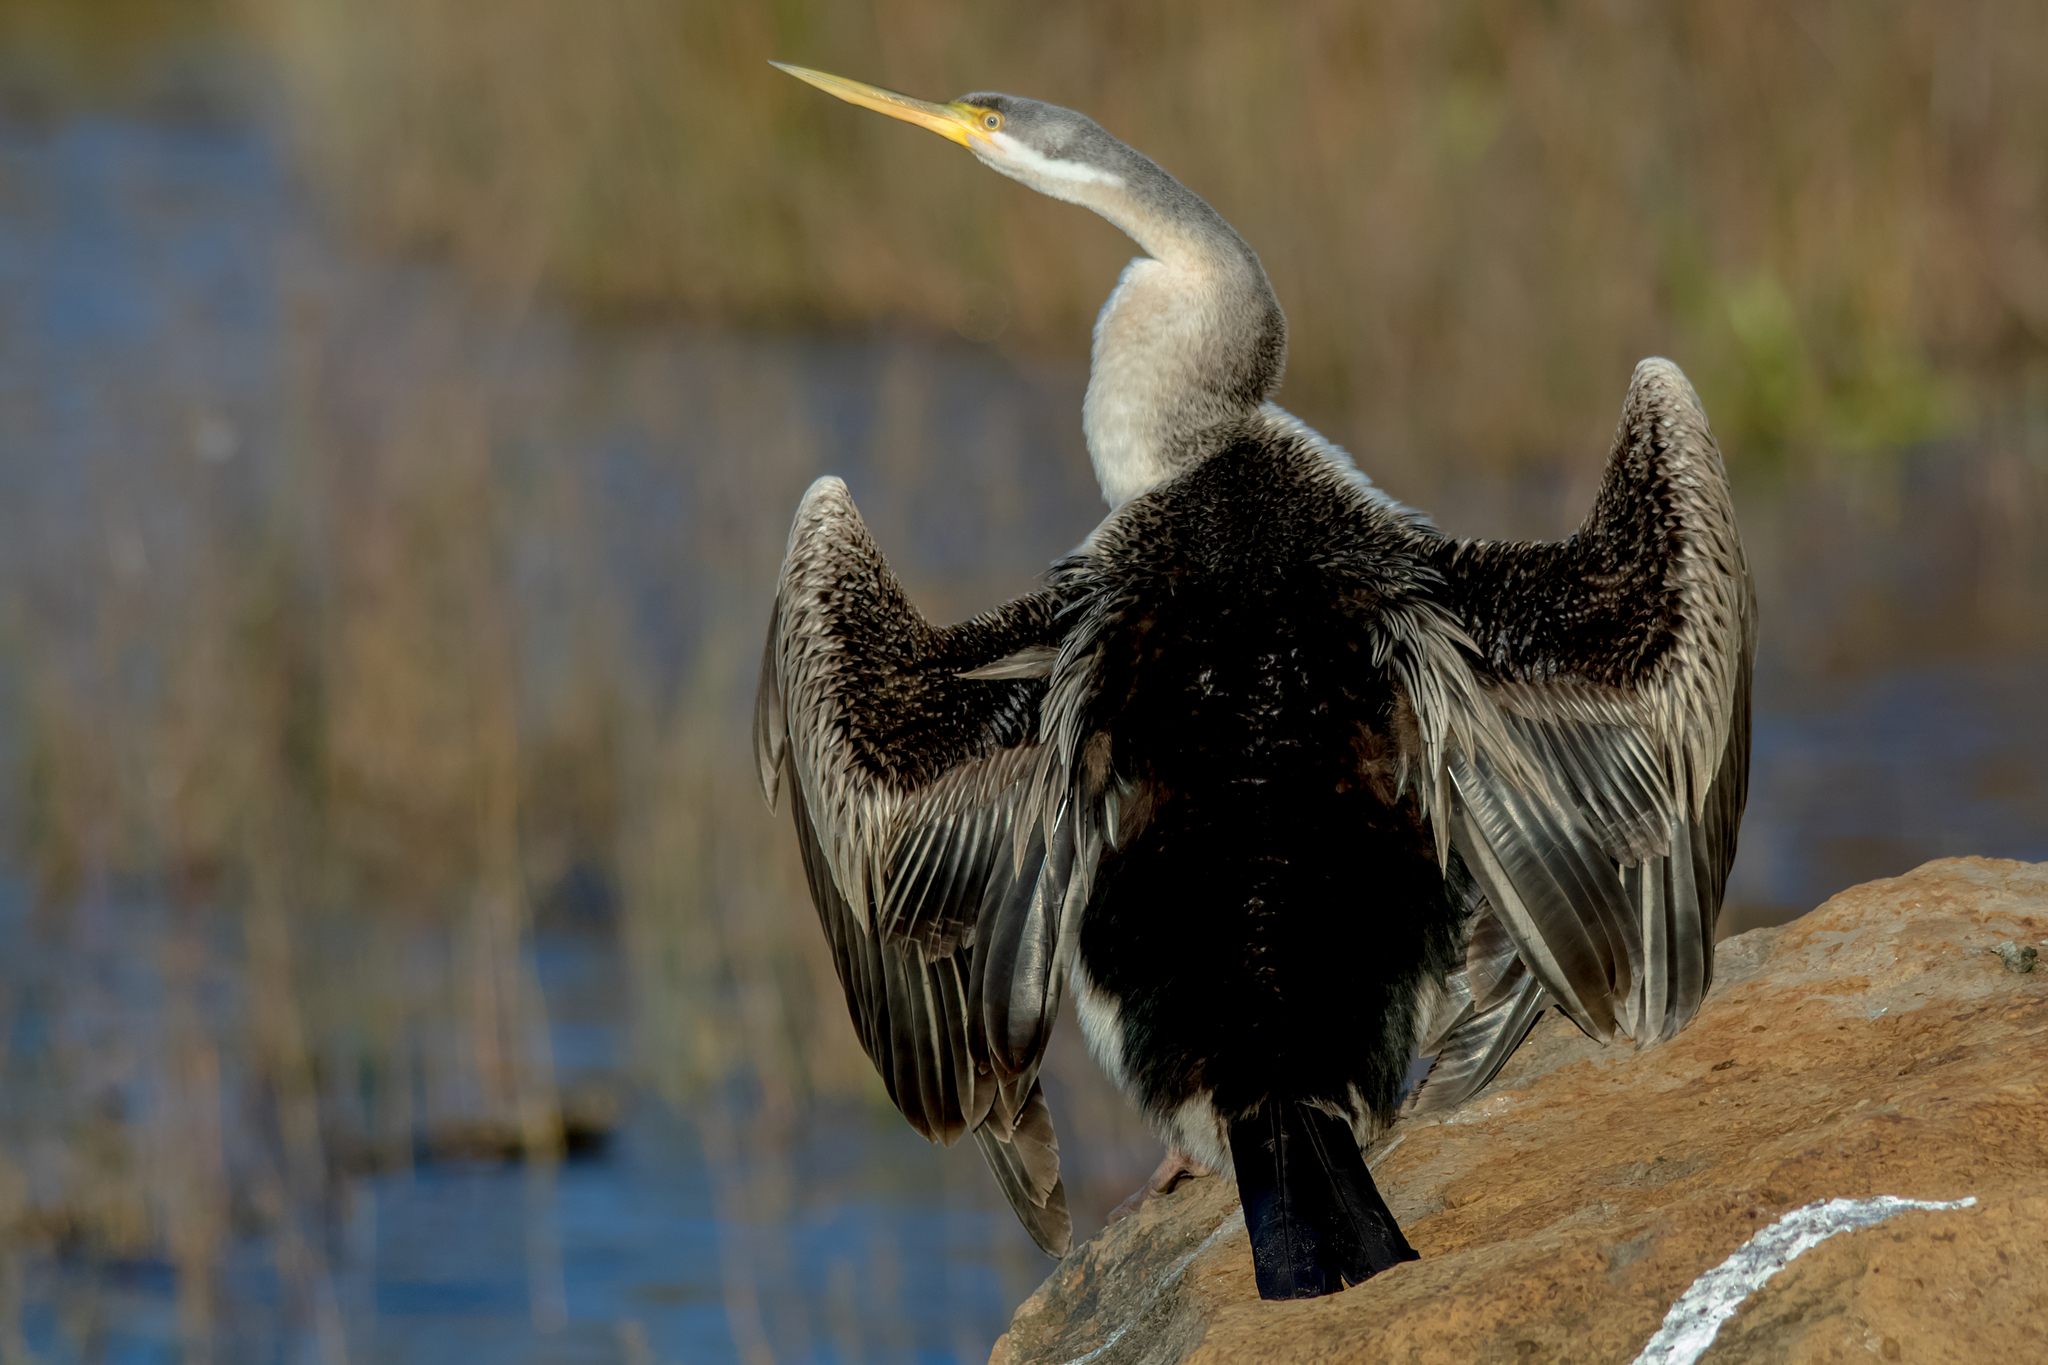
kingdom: Animalia
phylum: Chordata
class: Aves
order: Suliformes
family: Anhingidae
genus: Anhinga
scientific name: Anhinga novaehollandiae
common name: Australasian darter
